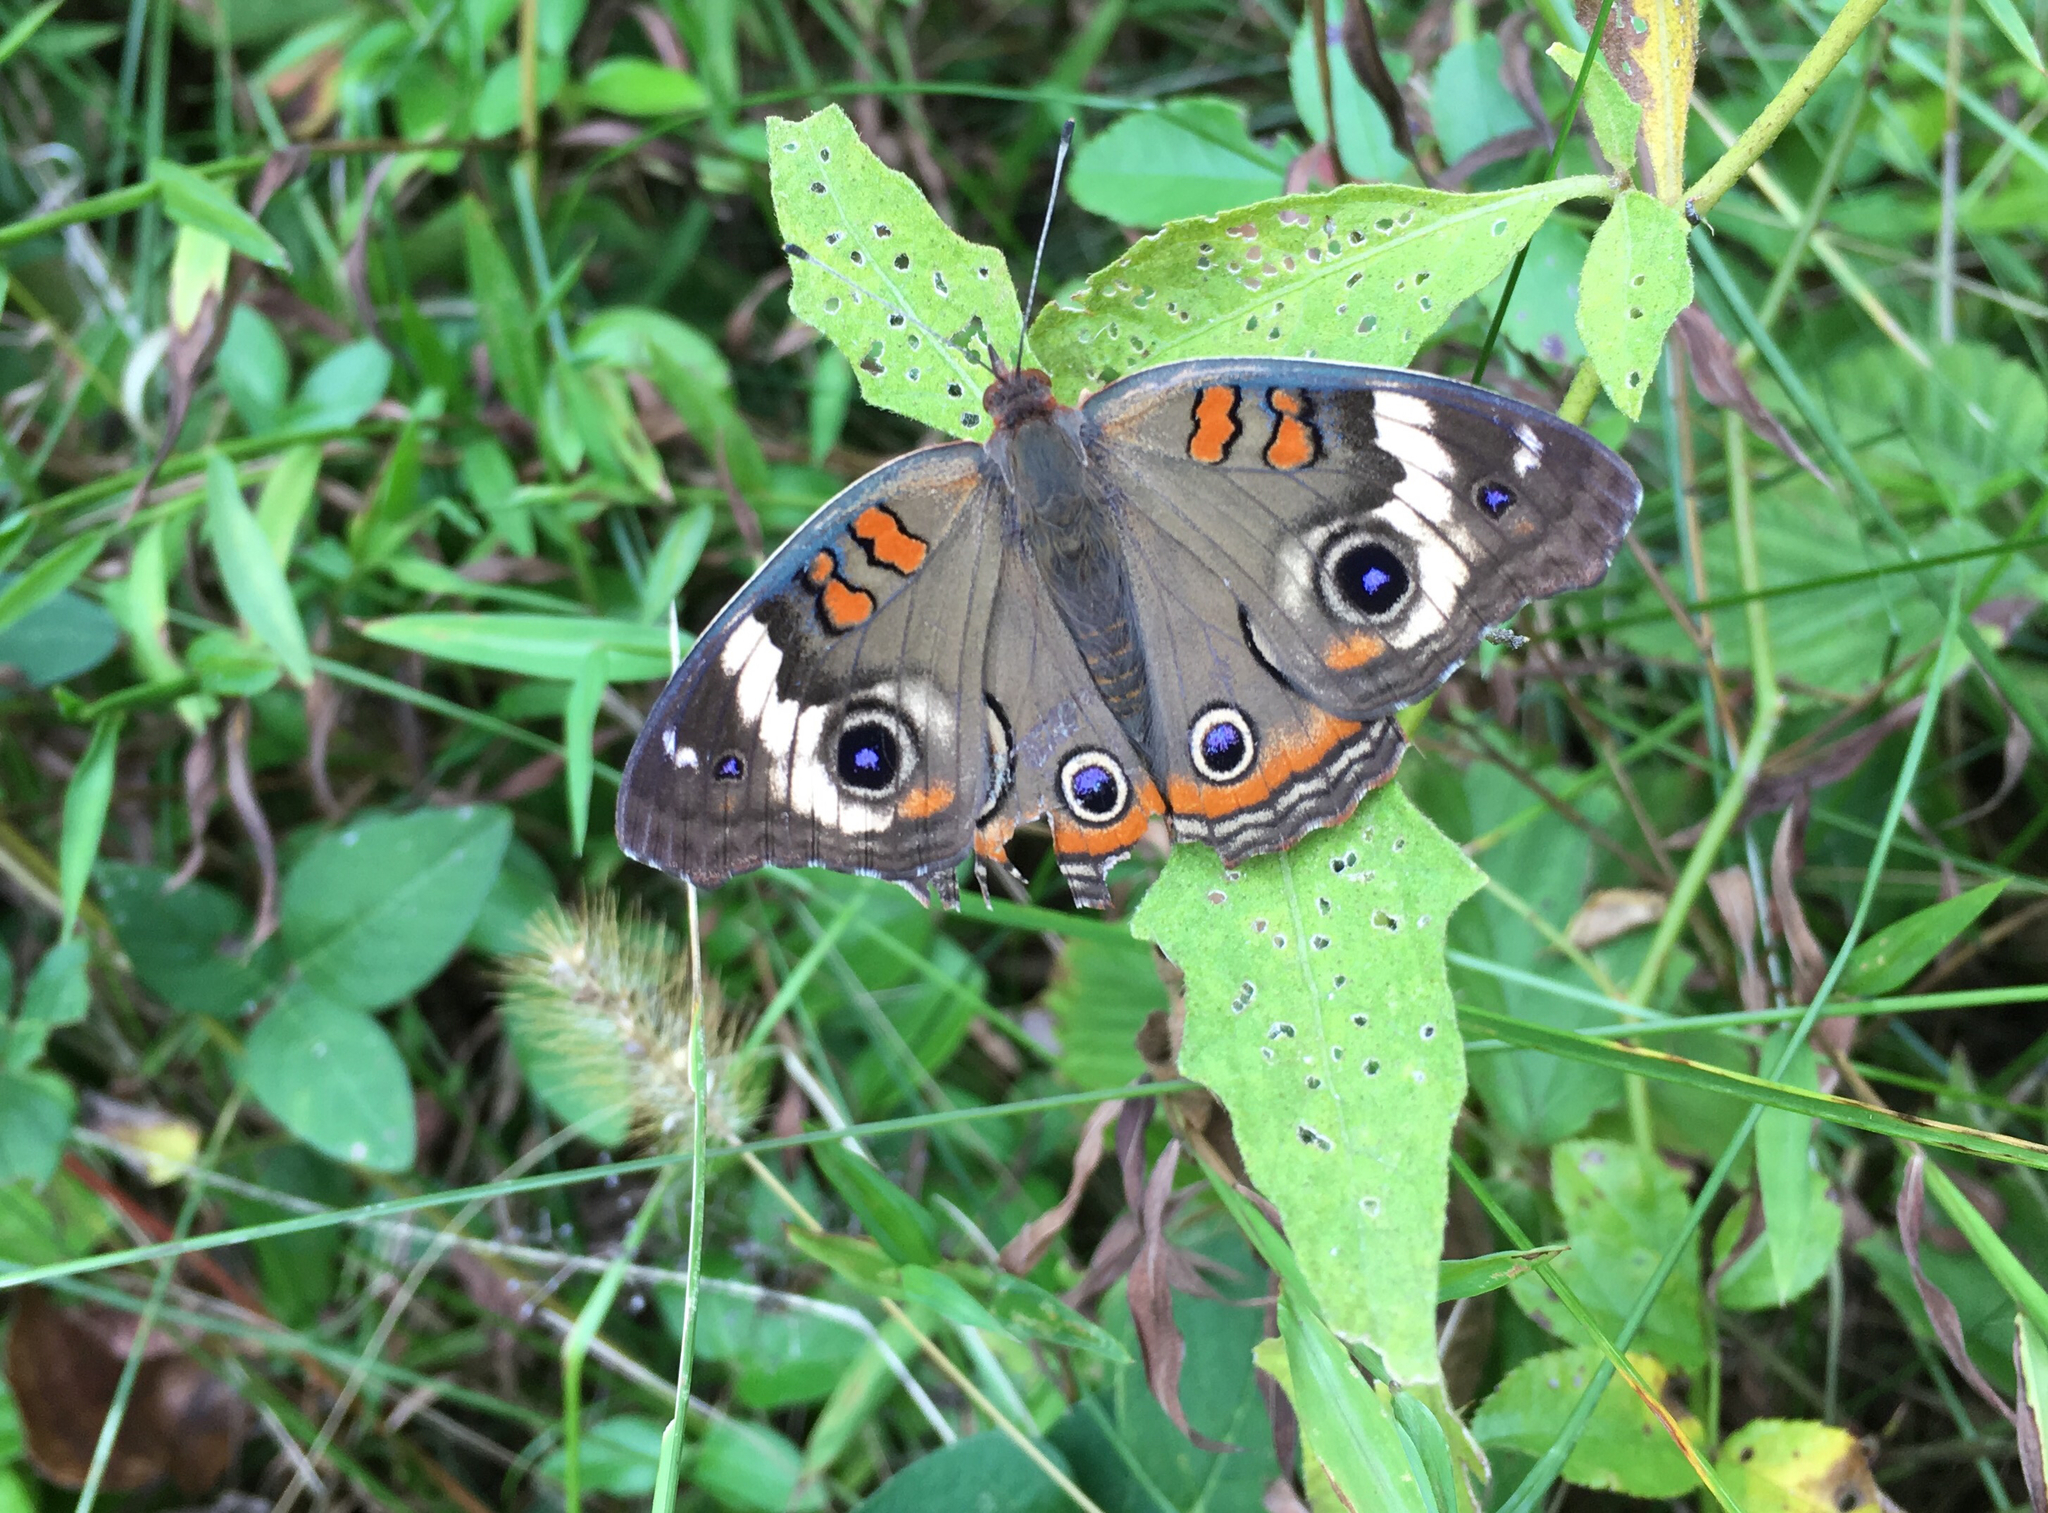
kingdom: Animalia
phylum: Arthropoda
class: Insecta
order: Lepidoptera
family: Nymphalidae
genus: Junonia
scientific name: Junonia coenia
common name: Common buckeye
